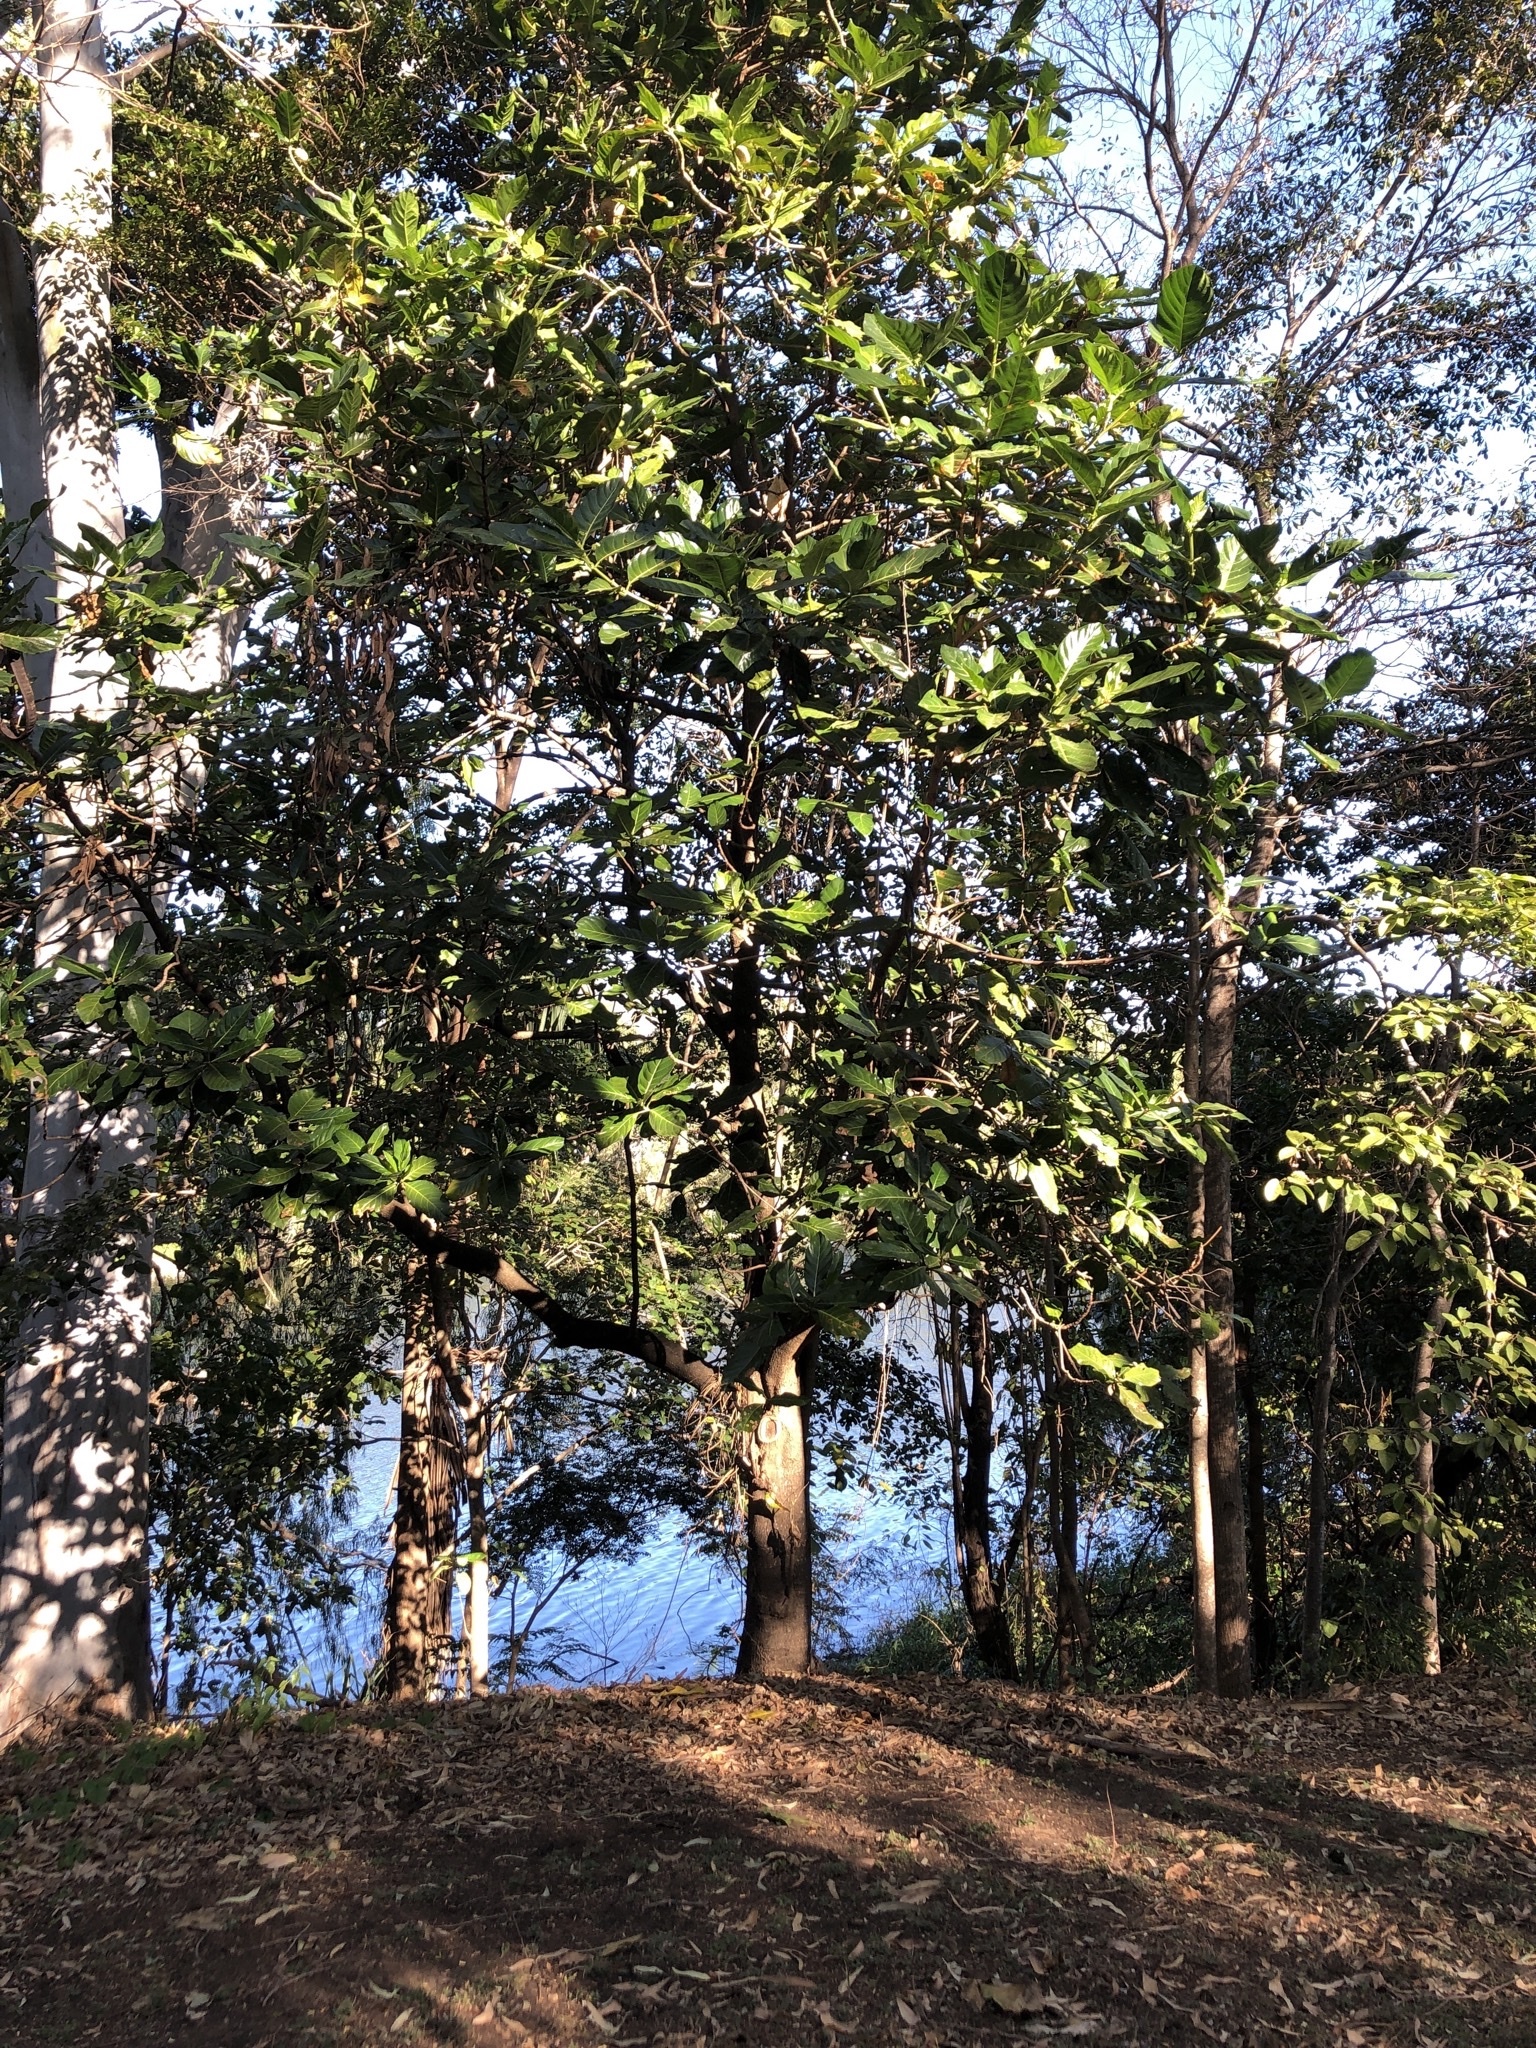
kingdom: Plantae
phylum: Tracheophyta
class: Magnoliopsida
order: Gentianales
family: Rubiaceae
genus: Morinda
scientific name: Morinda citrifolia
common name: Indian-mulberry
